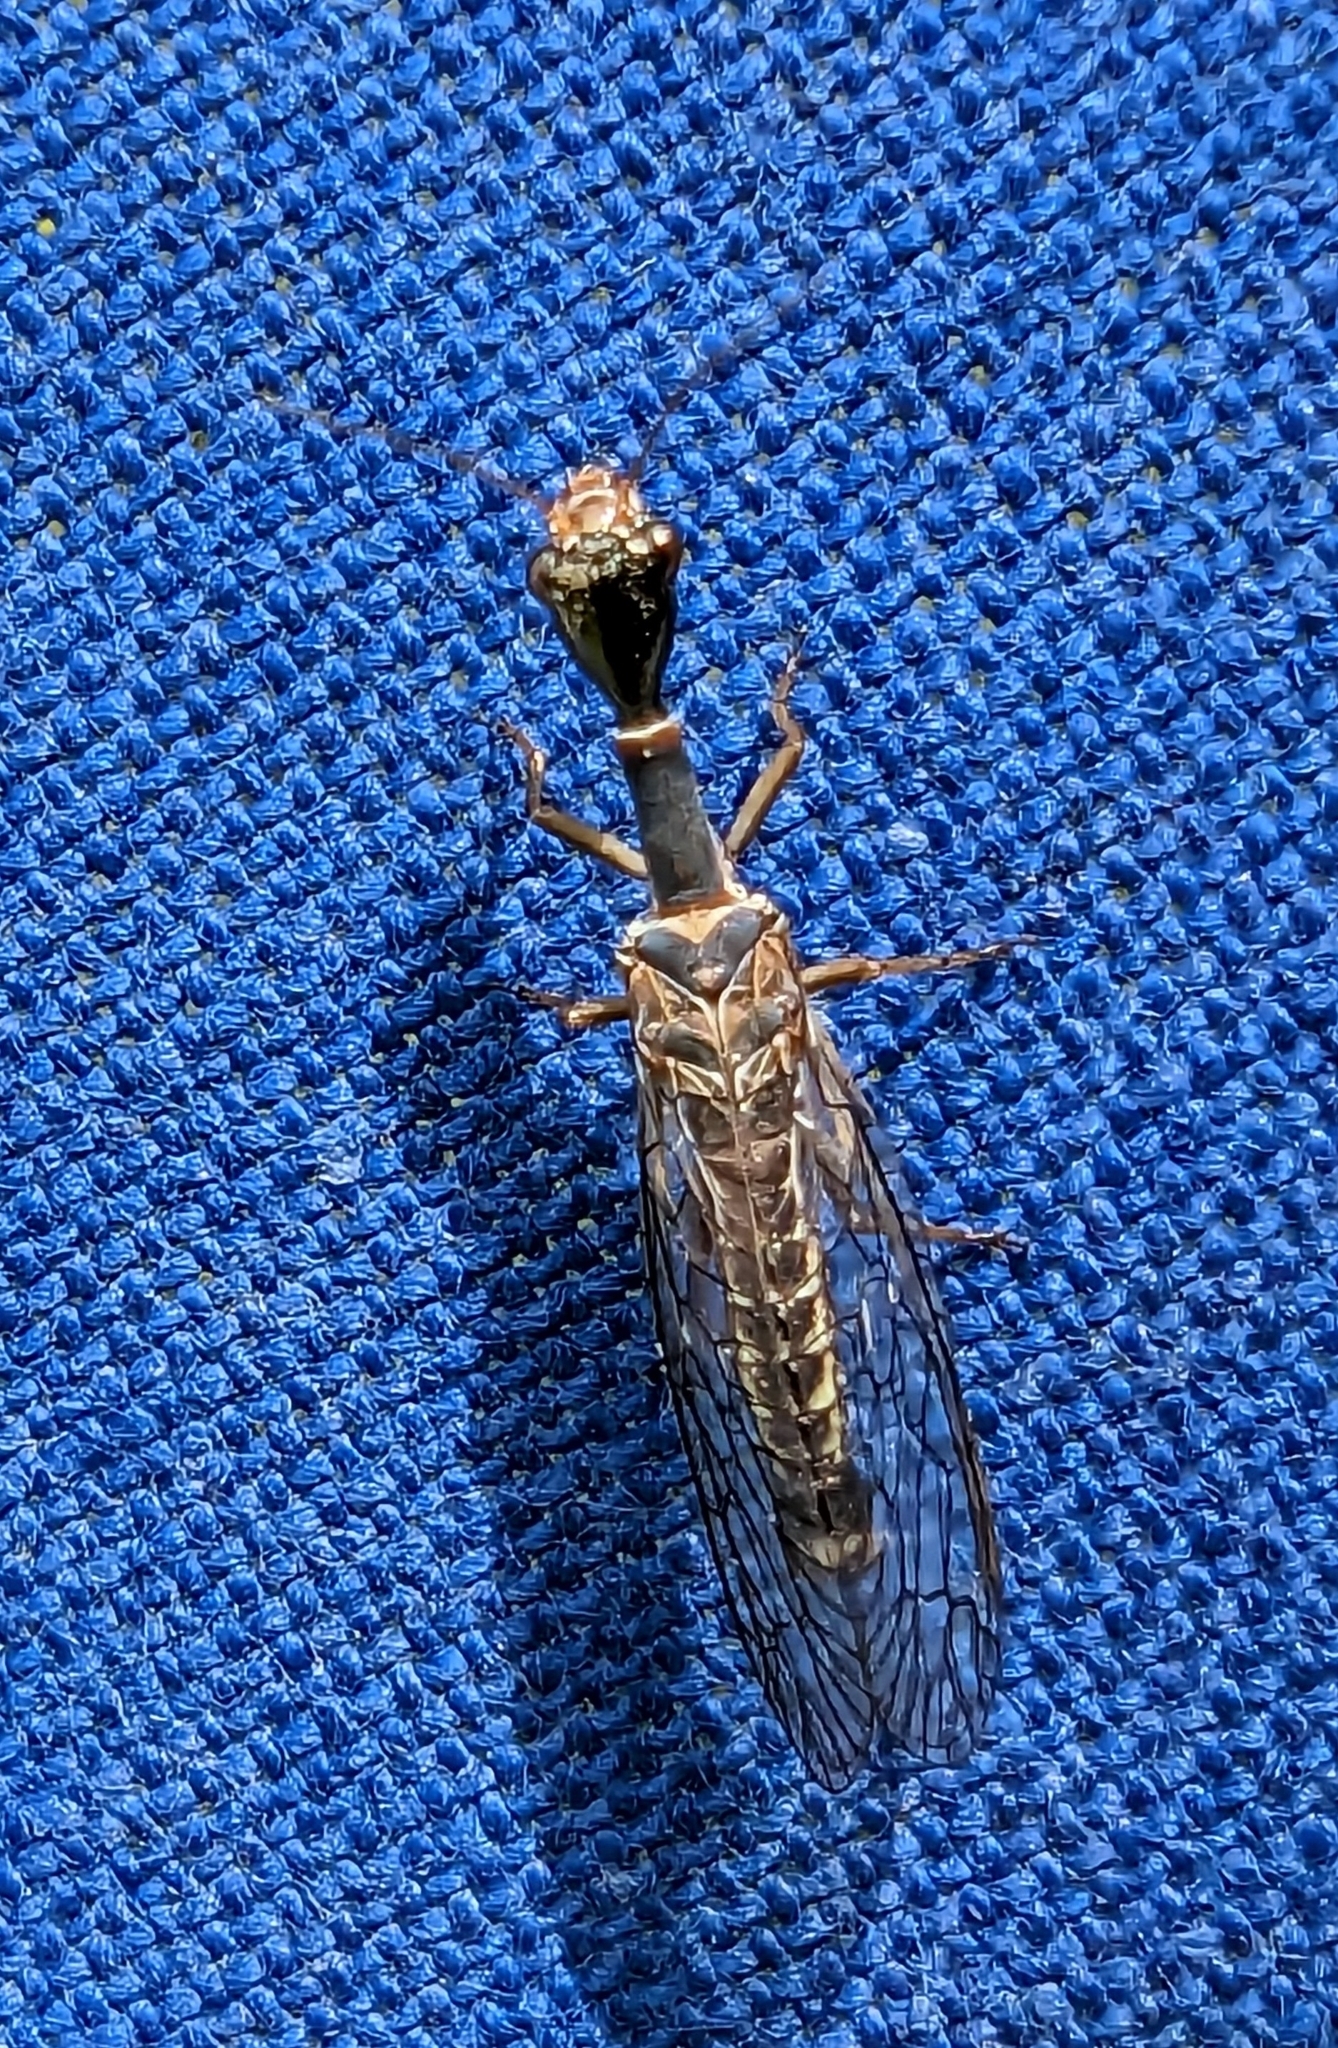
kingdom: Animalia
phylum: Arthropoda
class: Insecta
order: Raphidioptera
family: Raphidiidae
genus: Xanthostigma
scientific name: Xanthostigma xanthostigma
